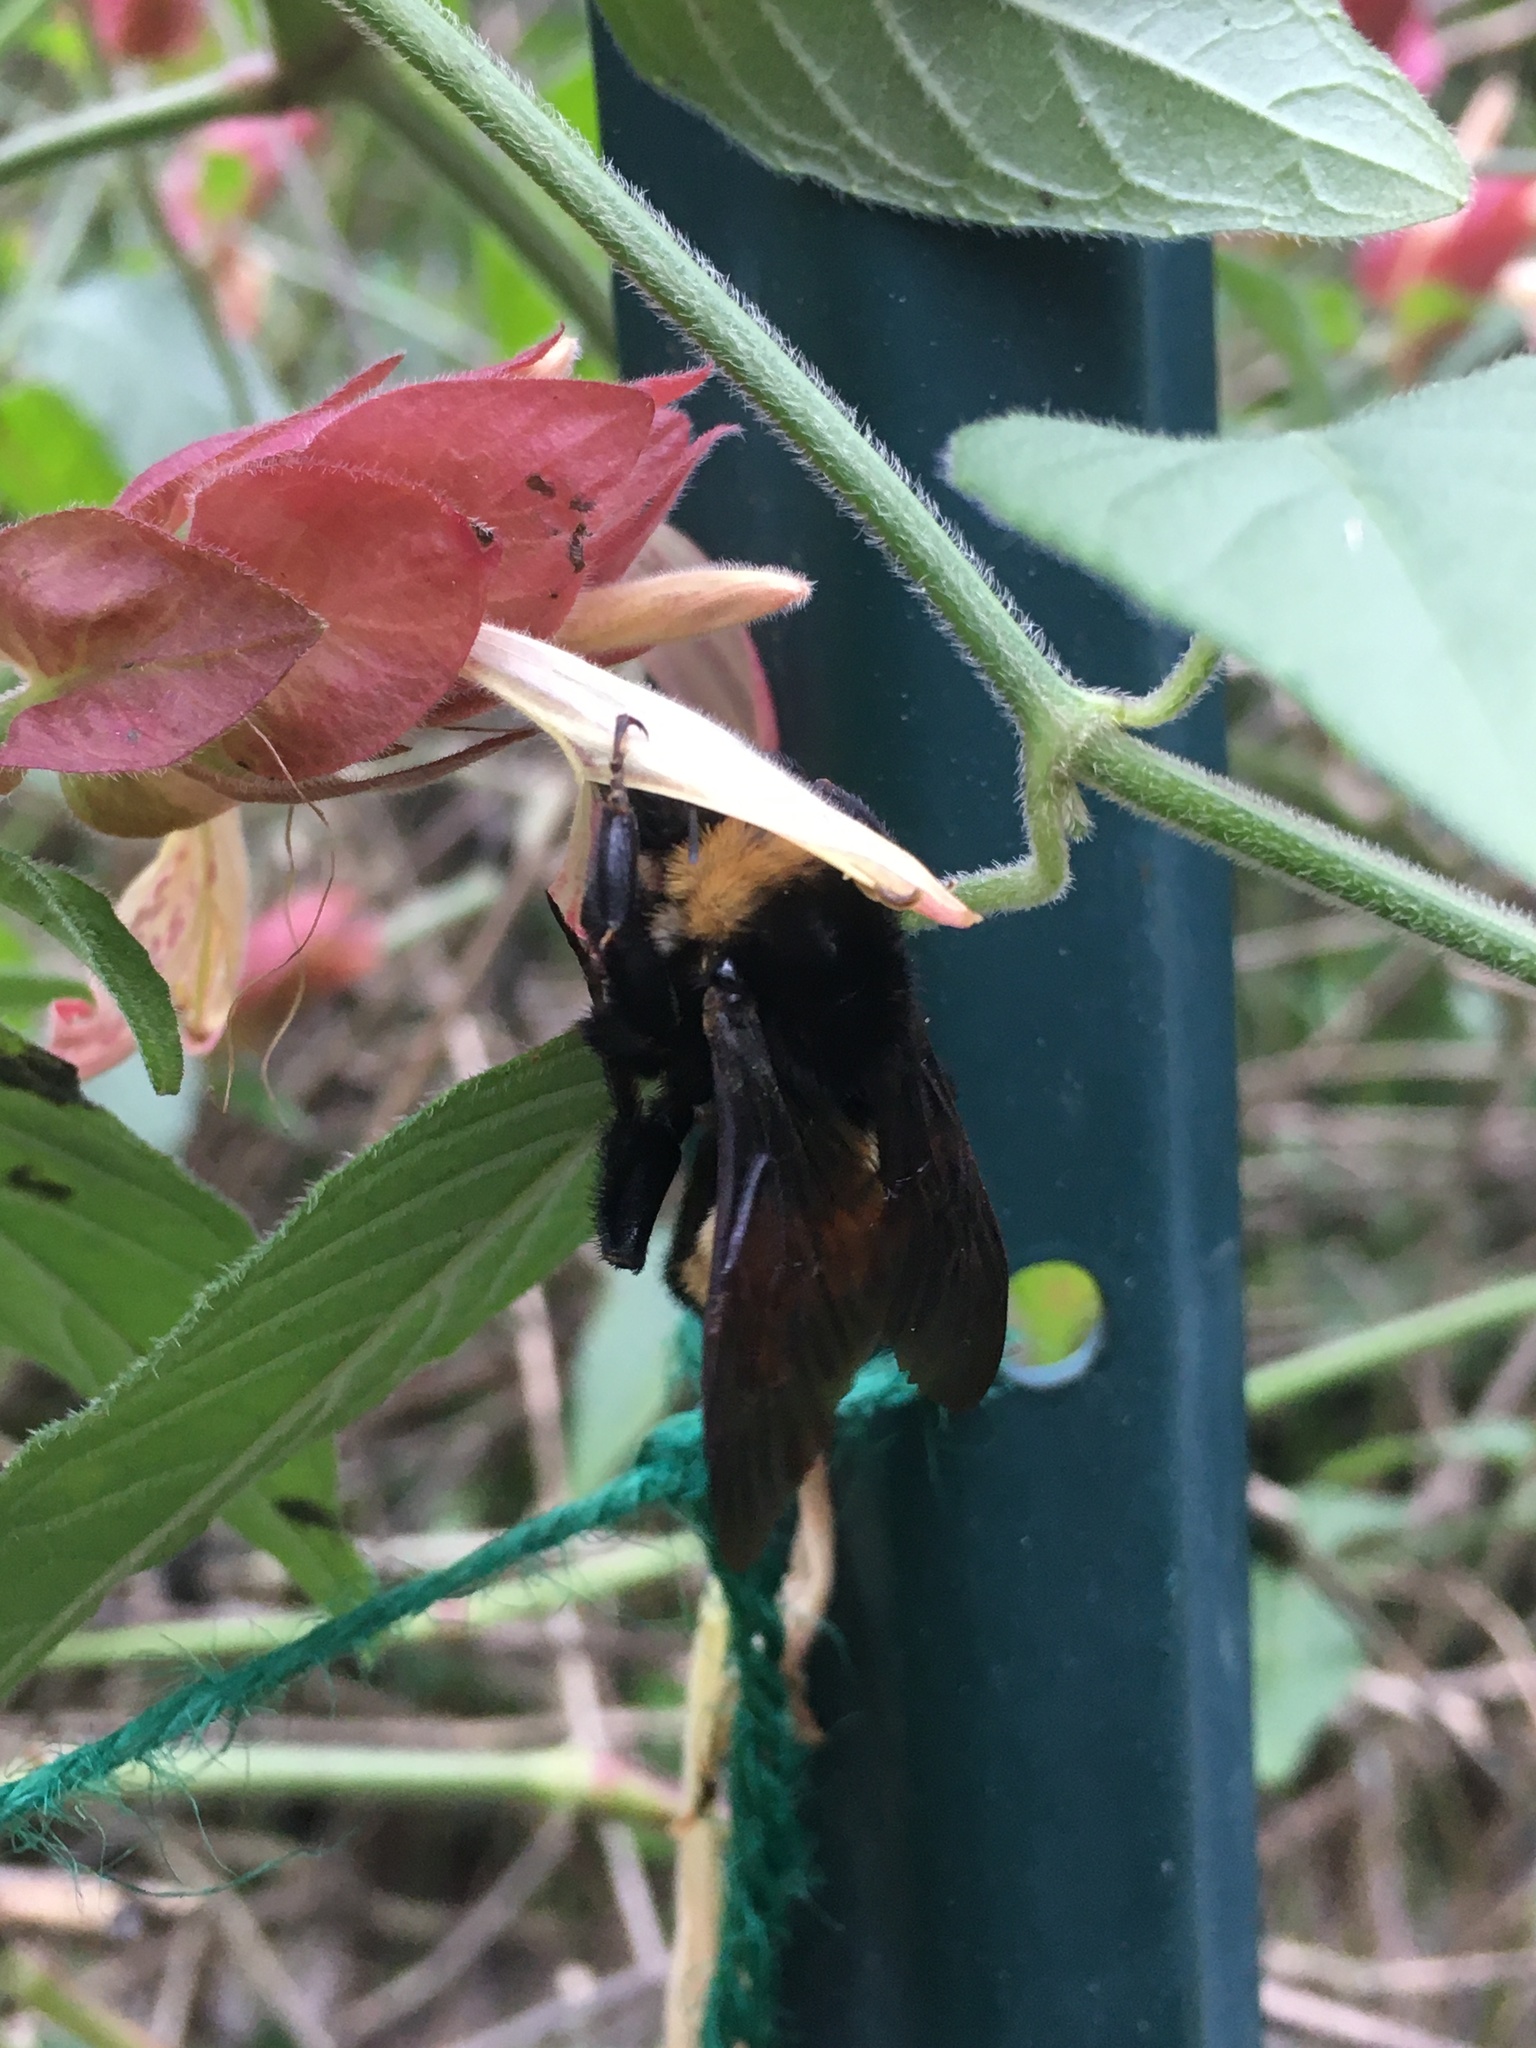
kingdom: Animalia
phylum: Arthropoda
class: Insecta
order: Hymenoptera
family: Apidae
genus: Bombus
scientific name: Bombus pensylvanicus
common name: Bumble bee
